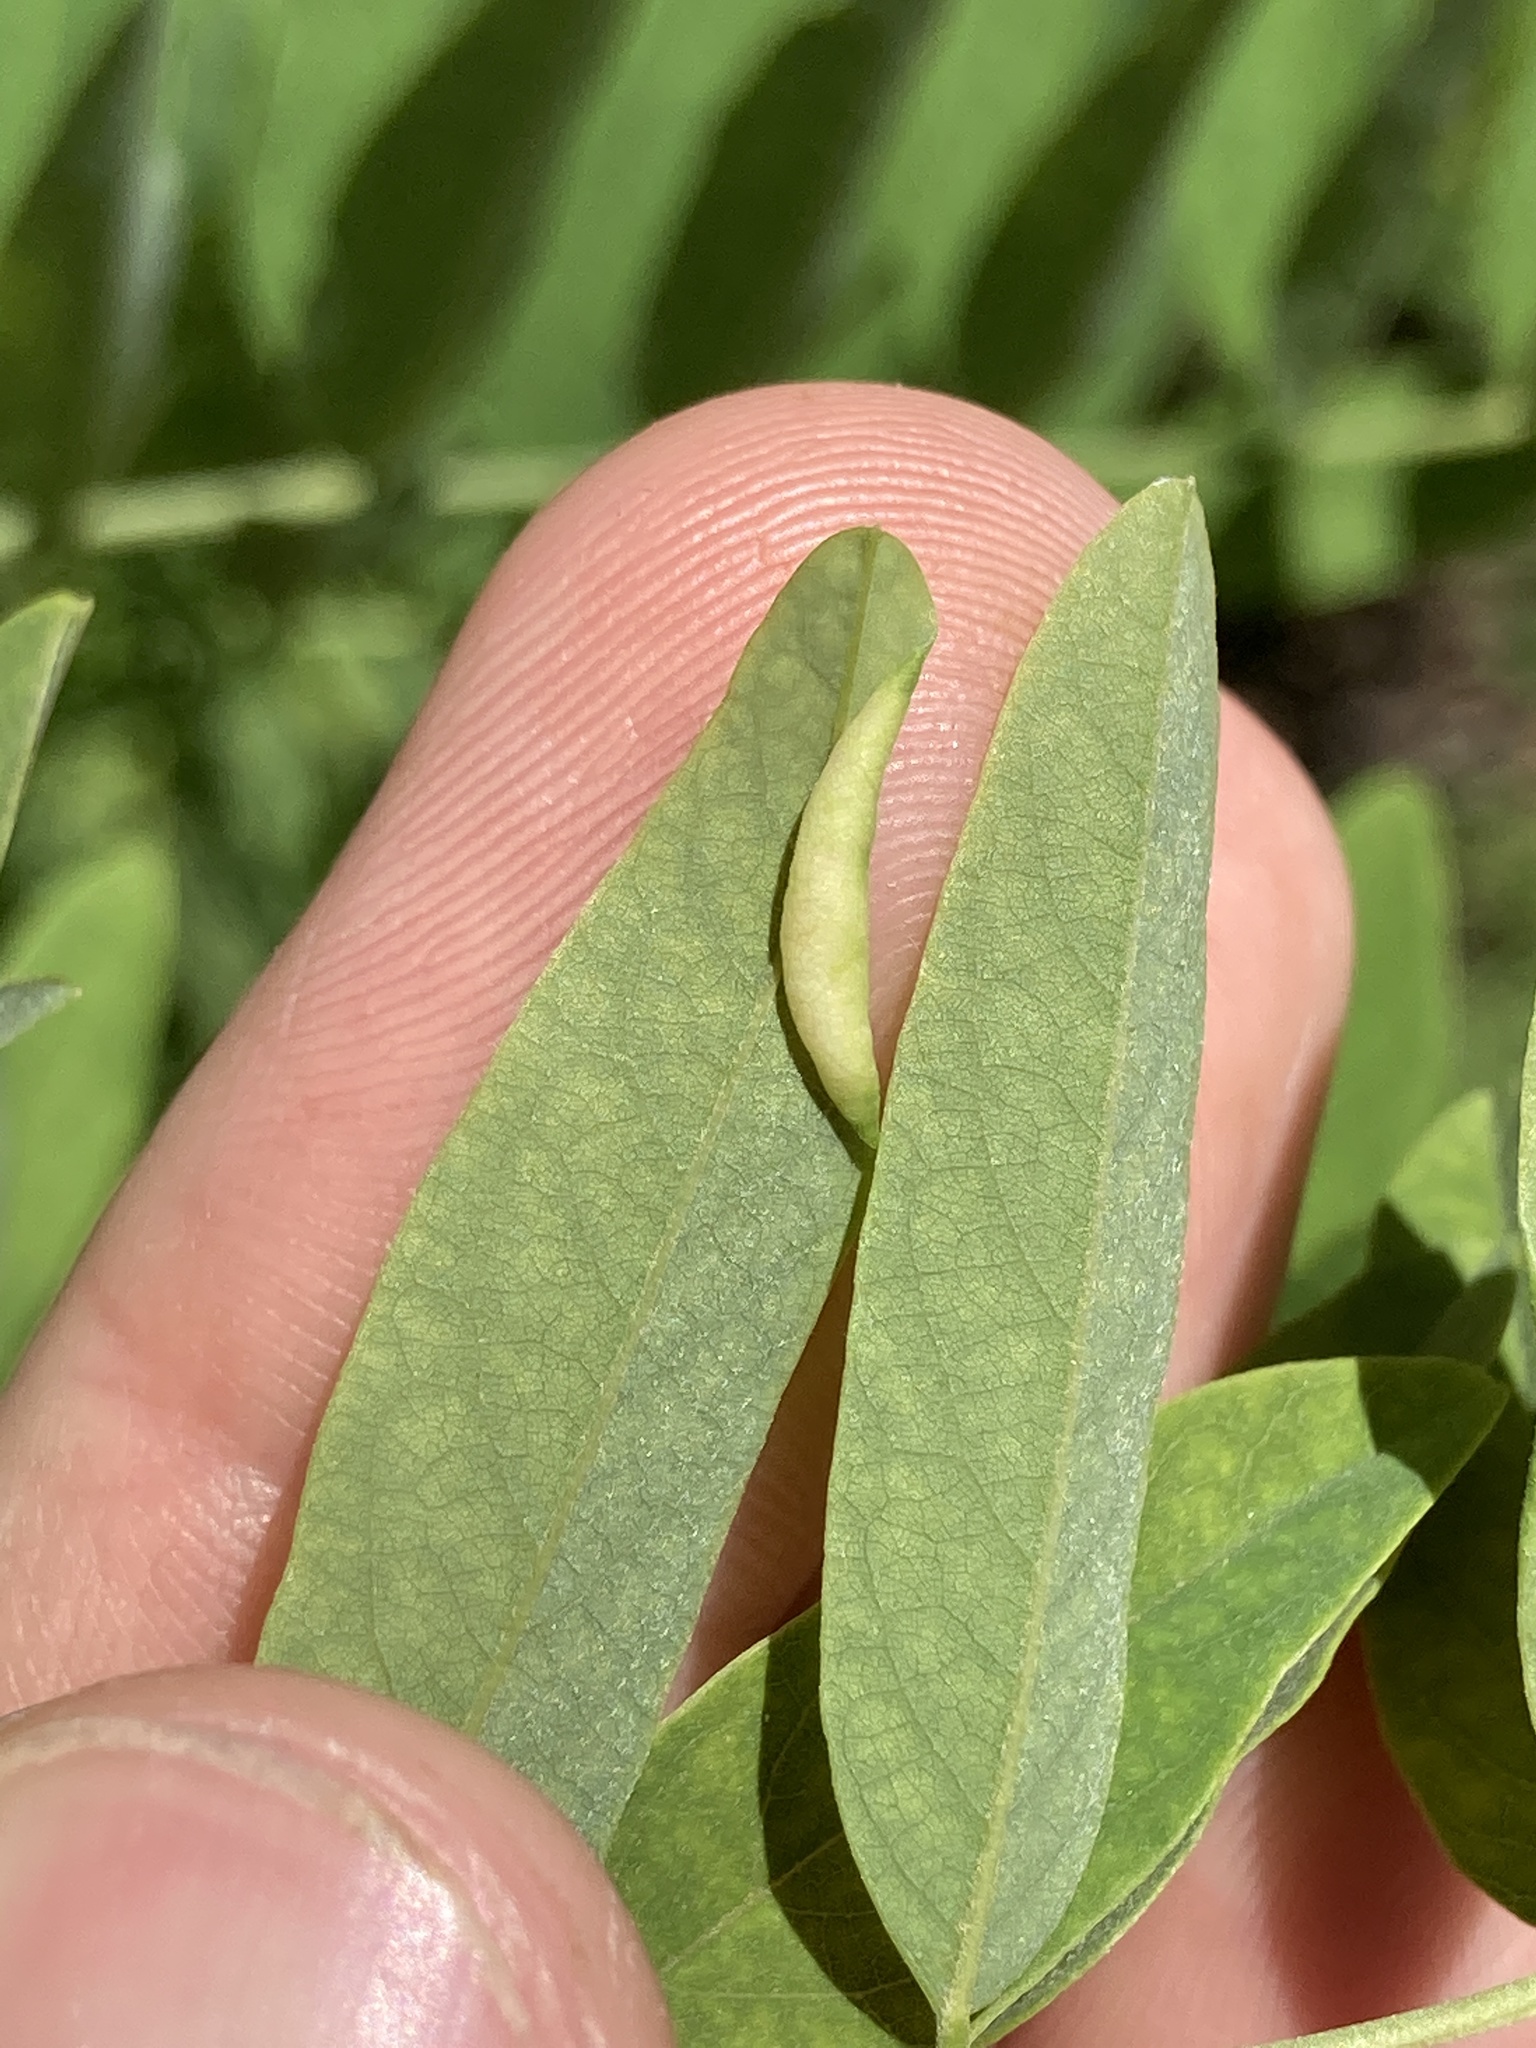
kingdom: Animalia
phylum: Arthropoda
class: Insecta
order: Diptera
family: Cecidomyiidae
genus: Obolodiplosis
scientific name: Obolodiplosis robiniae
